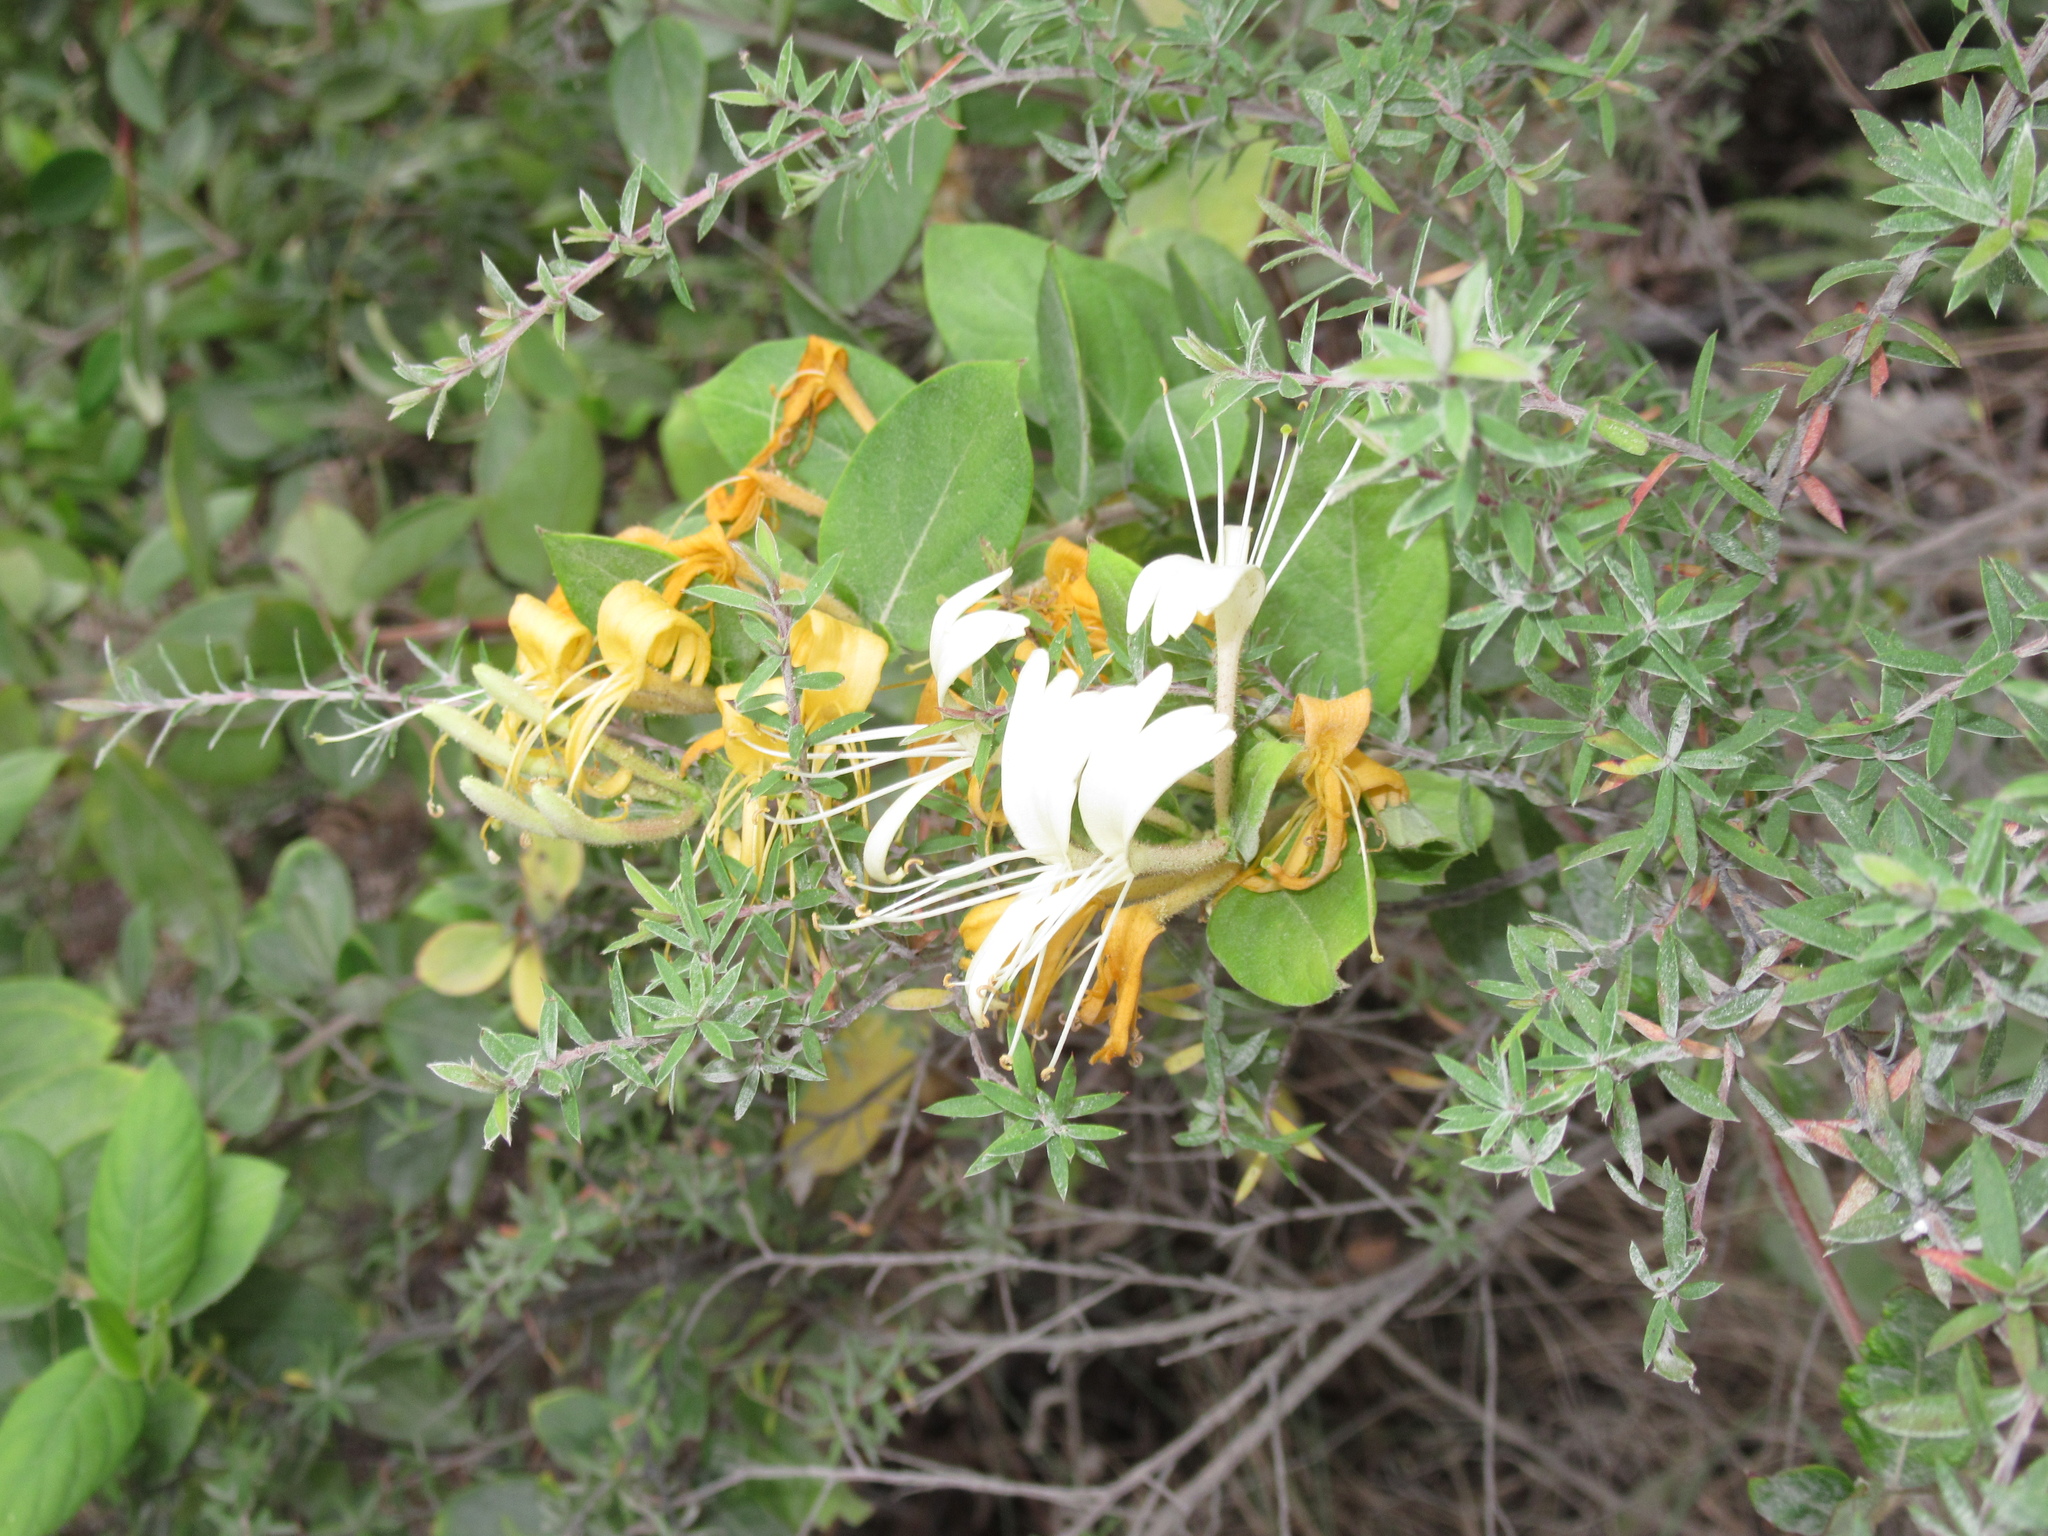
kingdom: Plantae
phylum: Tracheophyta
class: Magnoliopsida
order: Dipsacales
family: Caprifoliaceae
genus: Lonicera
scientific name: Lonicera japonica
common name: Japanese honeysuckle
